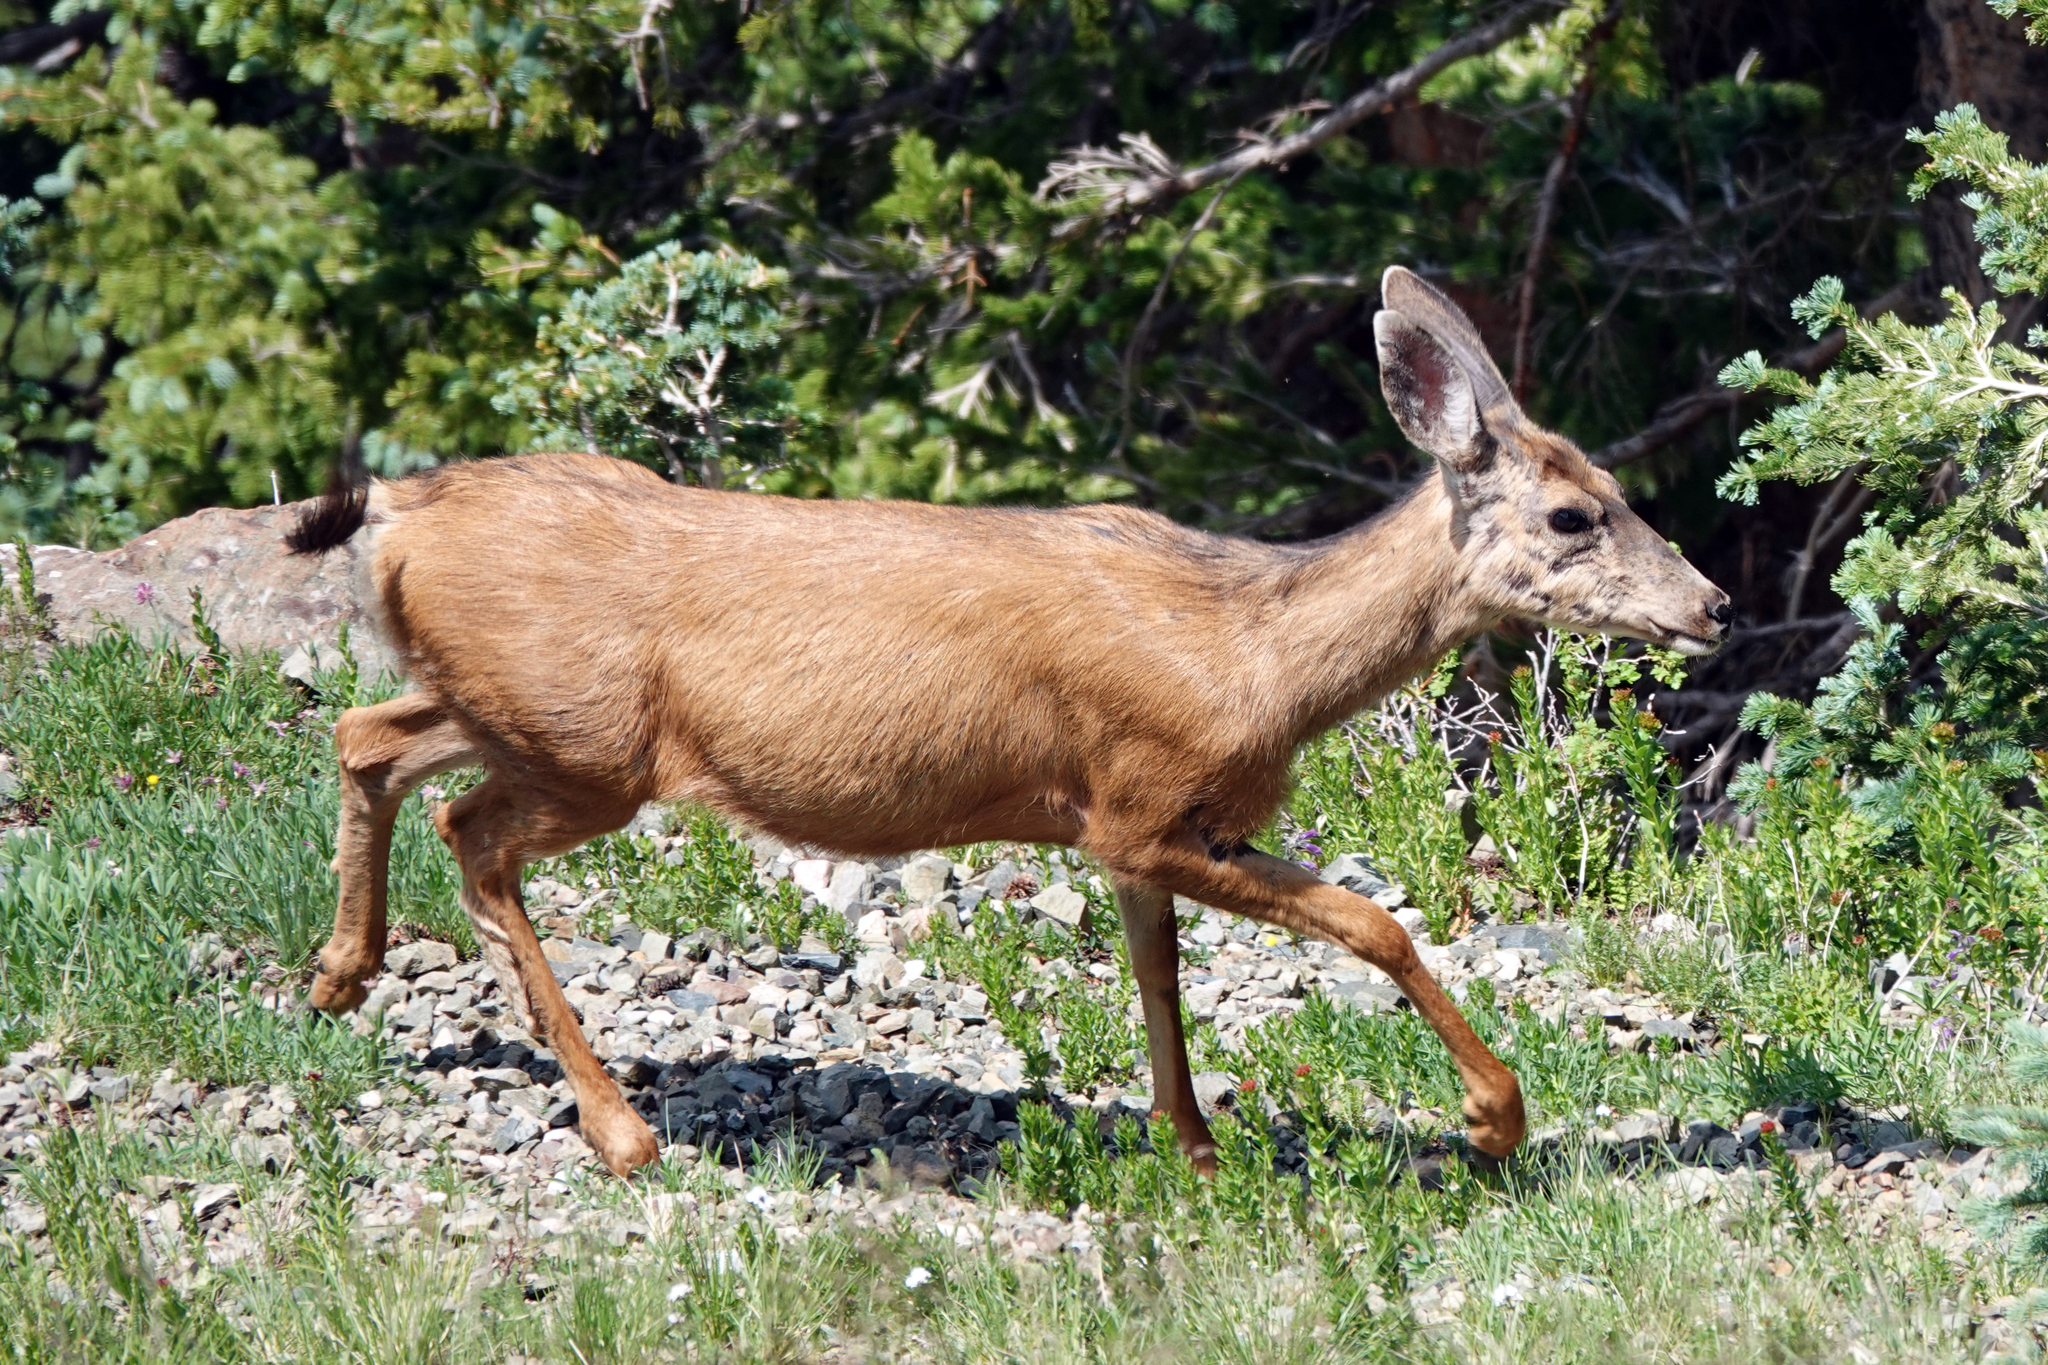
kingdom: Animalia
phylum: Chordata
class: Mammalia
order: Artiodactyla
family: Cervidae
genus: Odocoileus
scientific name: Odocoileus hemionus
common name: Mule deer
